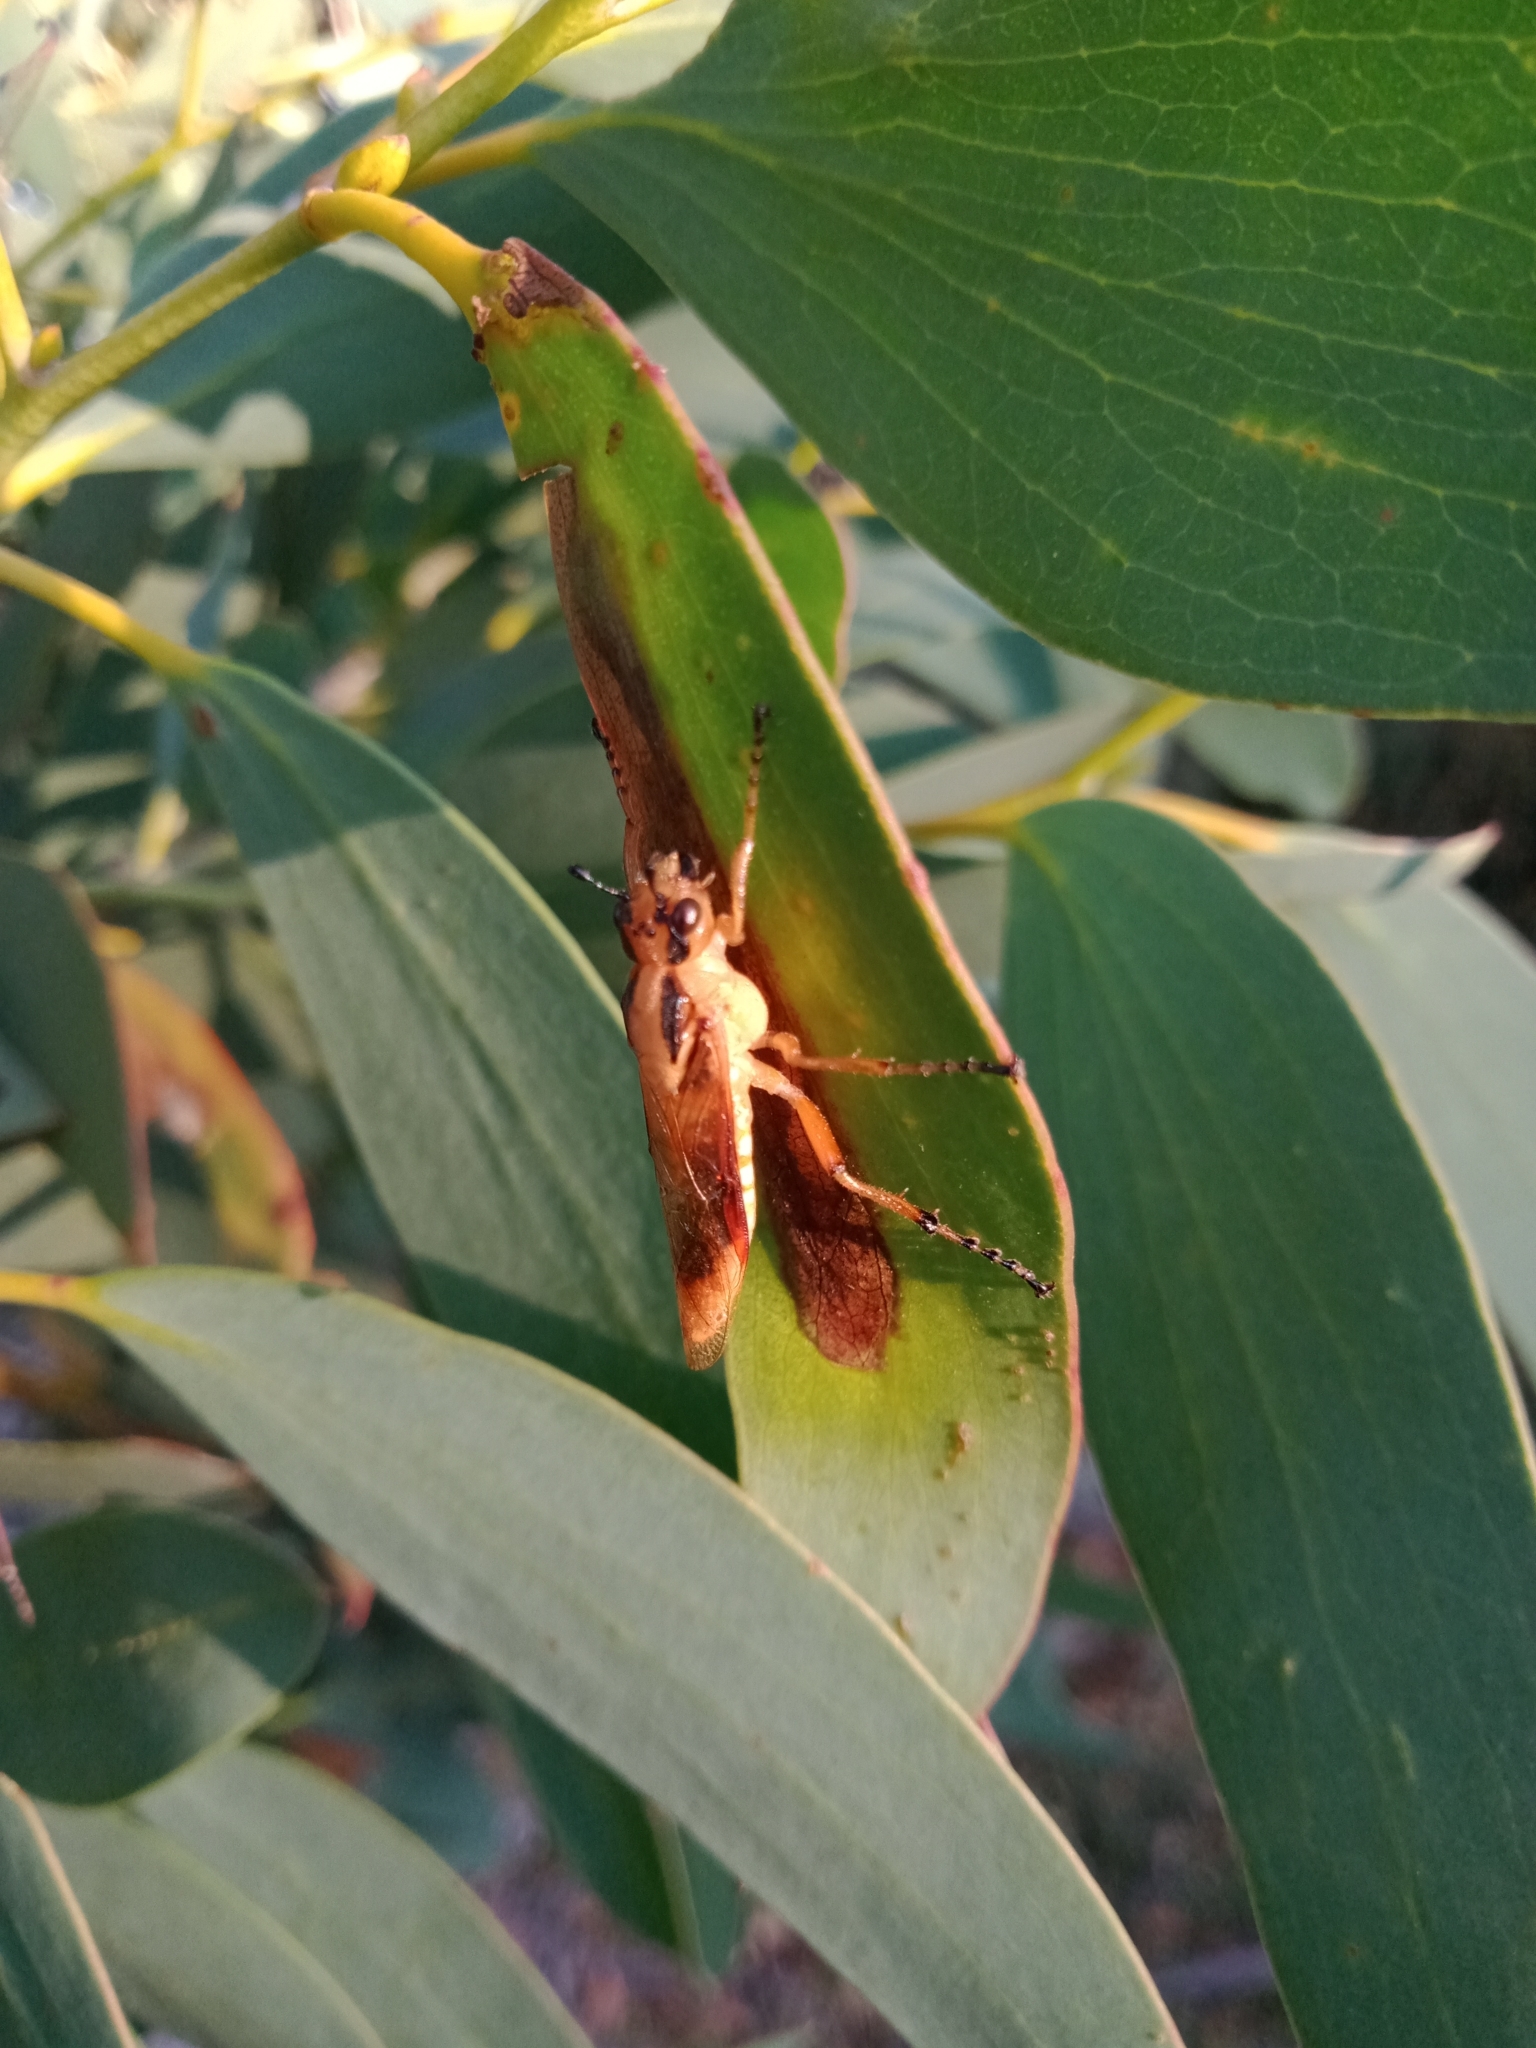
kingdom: Animalia
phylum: Arthropoda
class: Insecta
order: Hymenoptera
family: Pergidae
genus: Pseudoperga
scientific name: Pseudoperga guerinii
